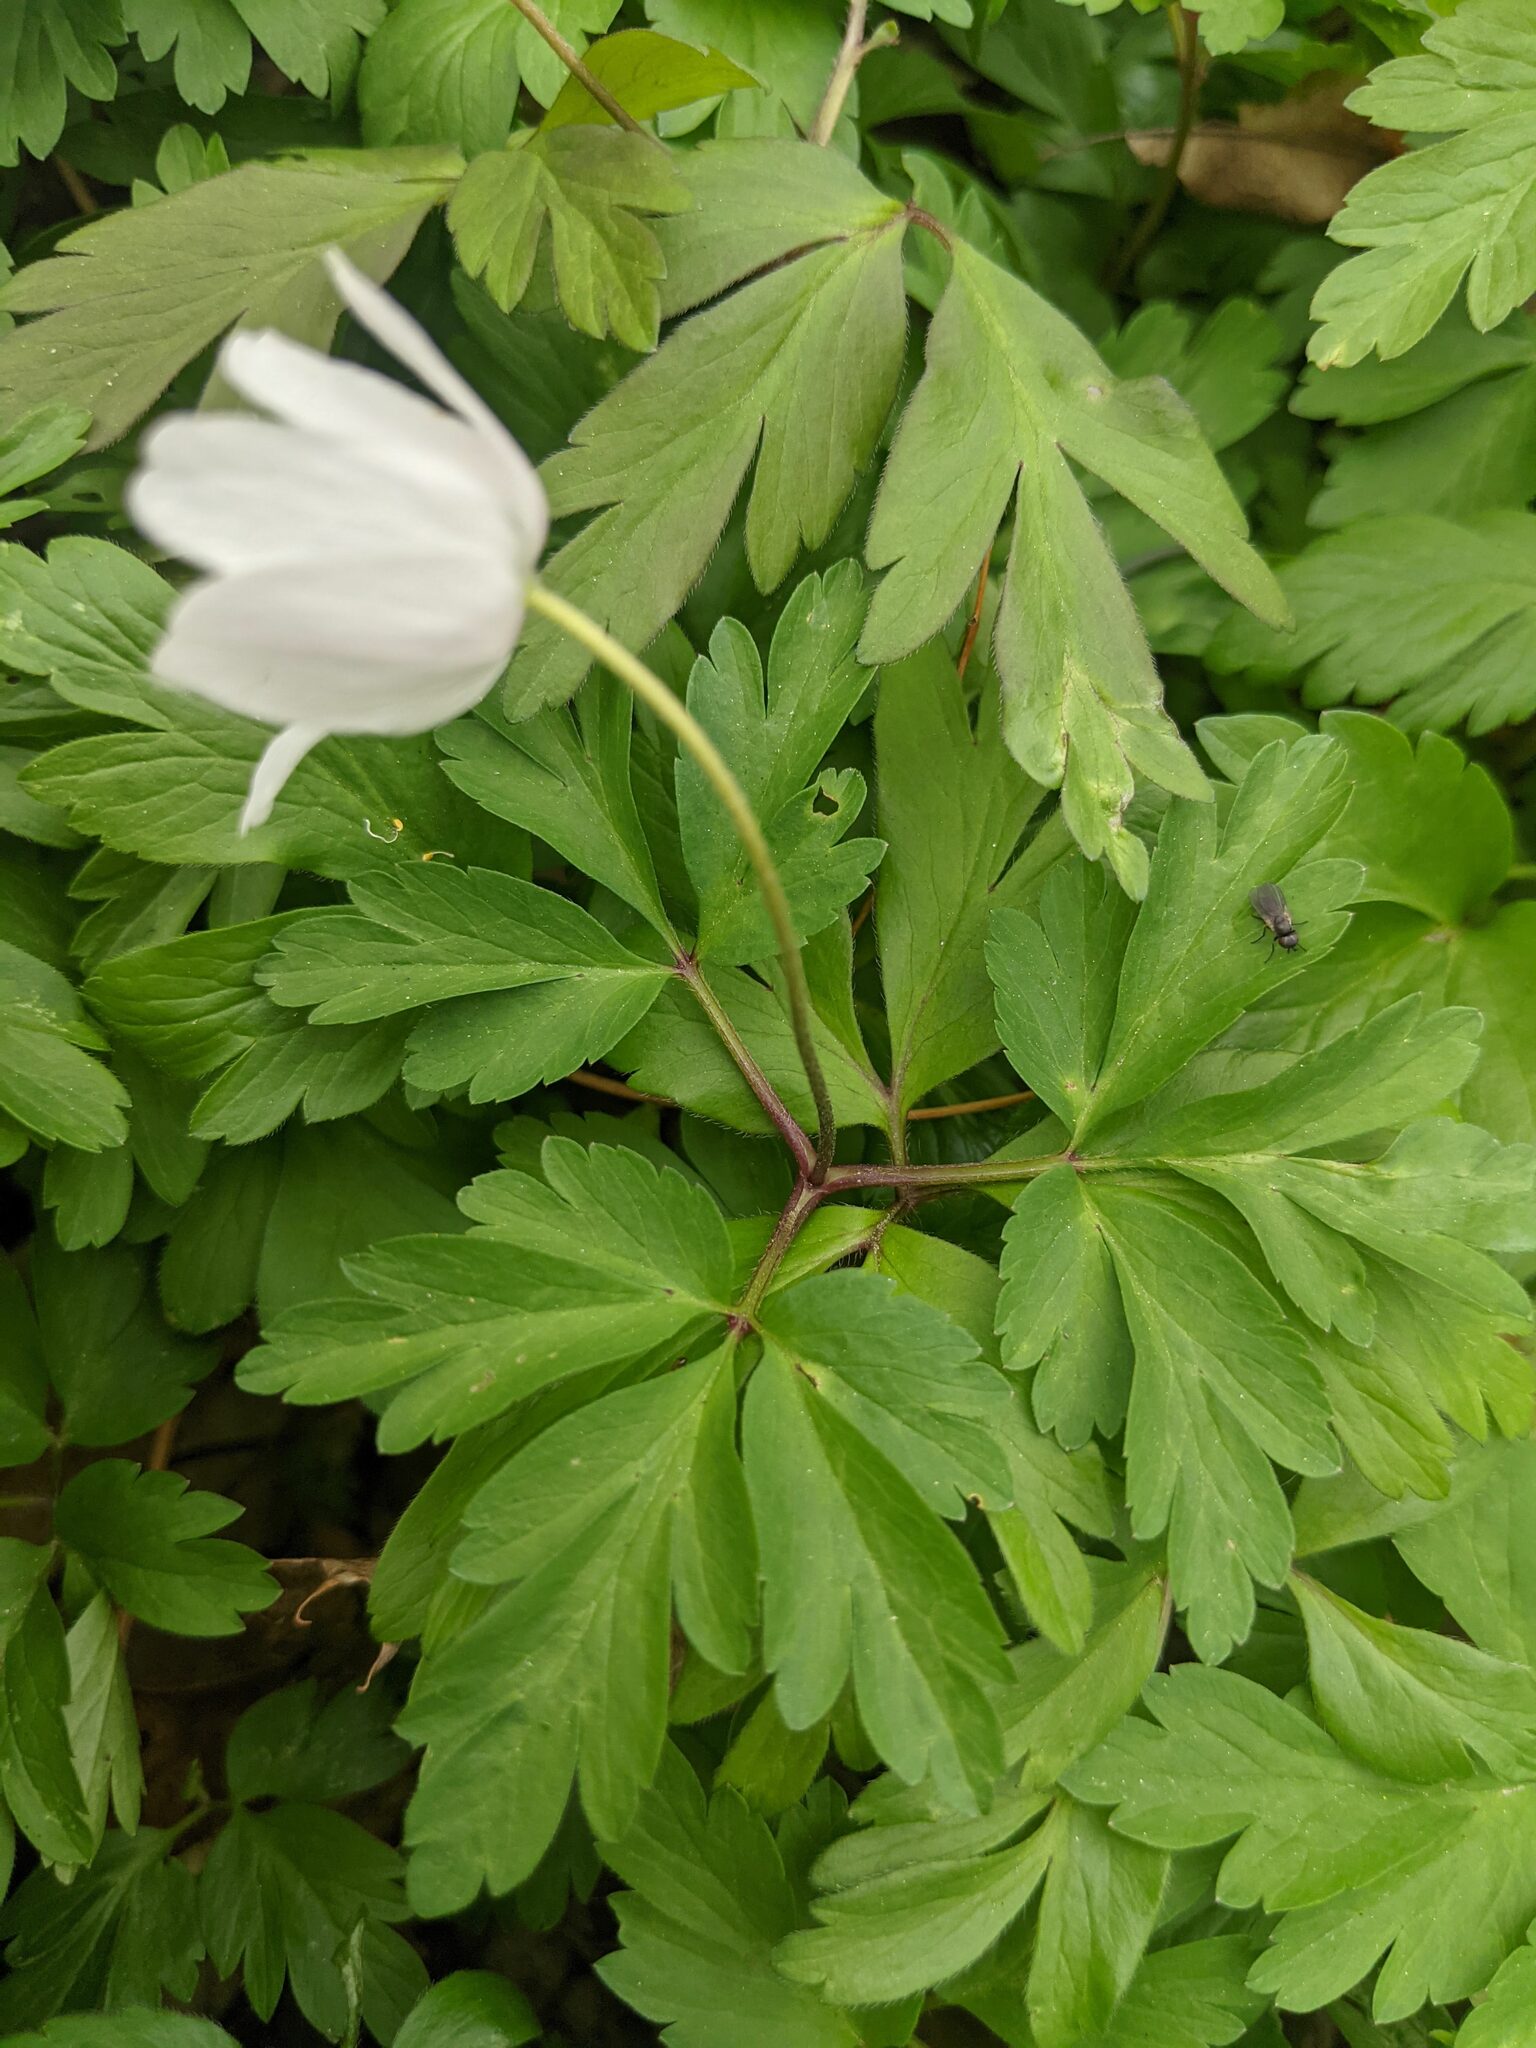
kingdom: Plantae
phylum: Tracheophyta
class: Magnoliopsida
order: Ranunculales
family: Ranunculaceae
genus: Anemone
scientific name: Anemone nemorosa
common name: Wood anemone
